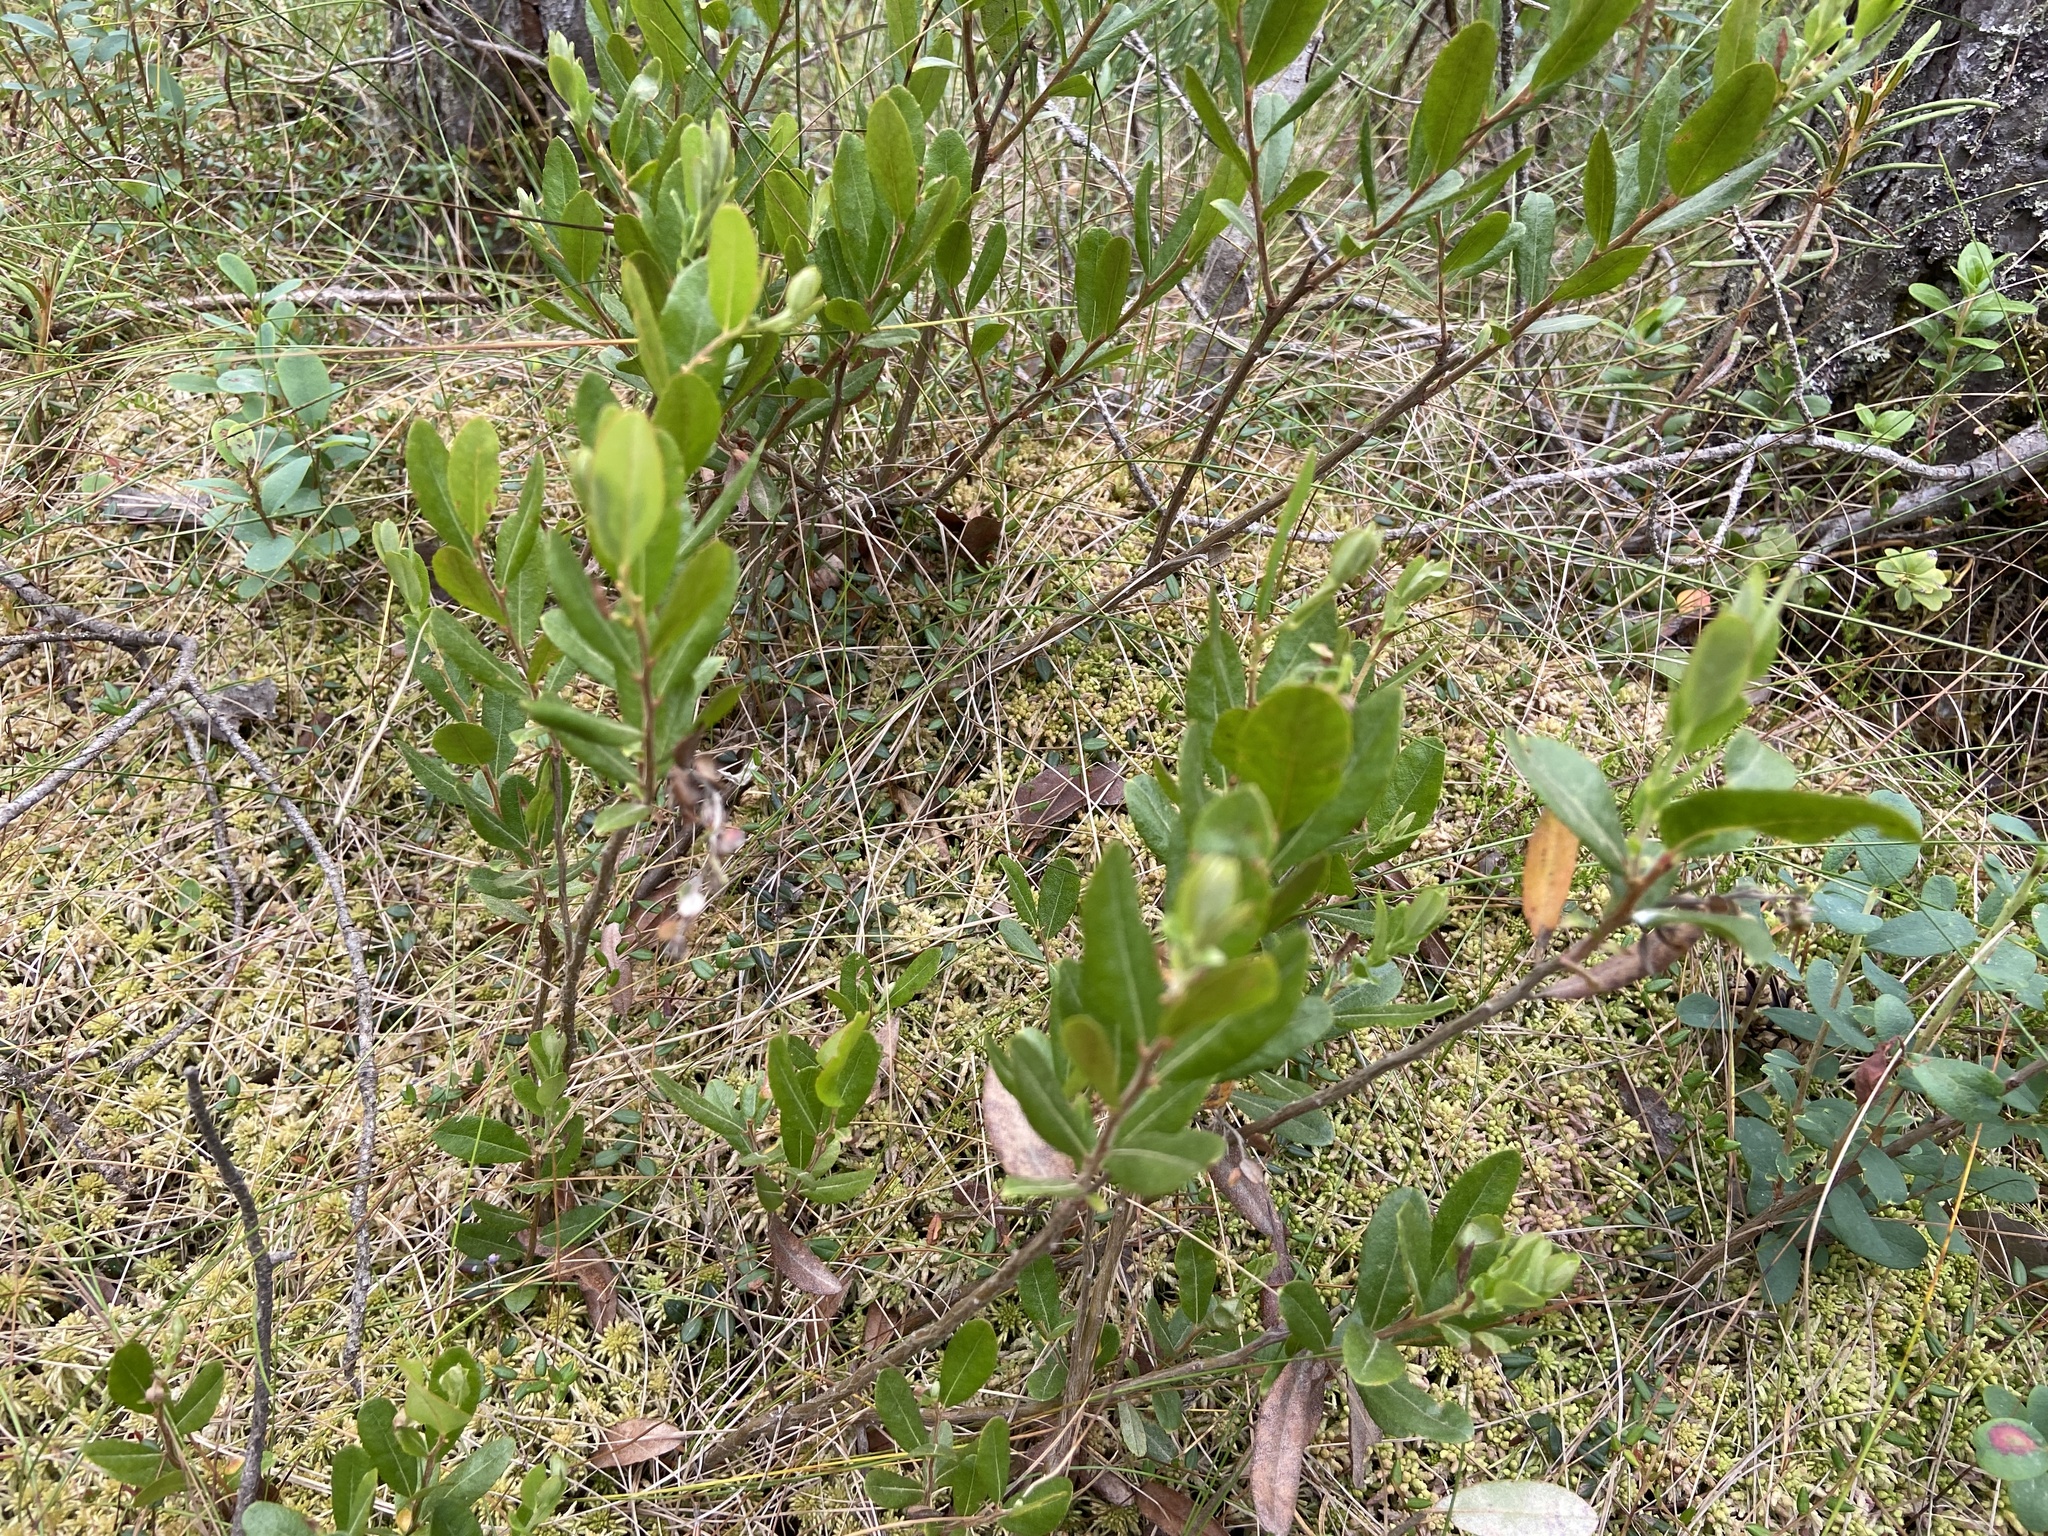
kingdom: Plantae
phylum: Tracheophyta
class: Magnoliopsida
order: Ericales
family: Ericaceae
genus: Chamaedaphne
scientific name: Chamaedaphne calyculata
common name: Leatherleaf
